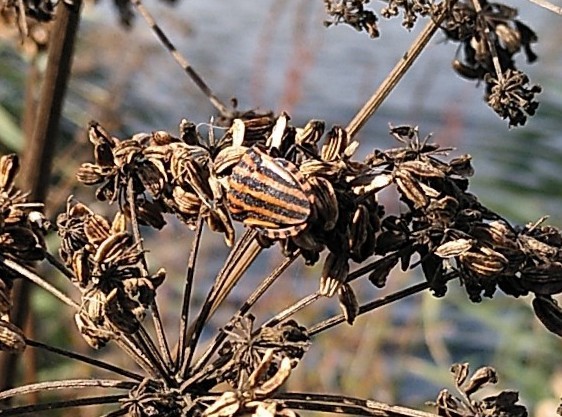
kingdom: Animalia
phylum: Arthropoda
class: Insecta
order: Hemiptera
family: Pentatomidae
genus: Graphosoma
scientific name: Graphosoma italicum
